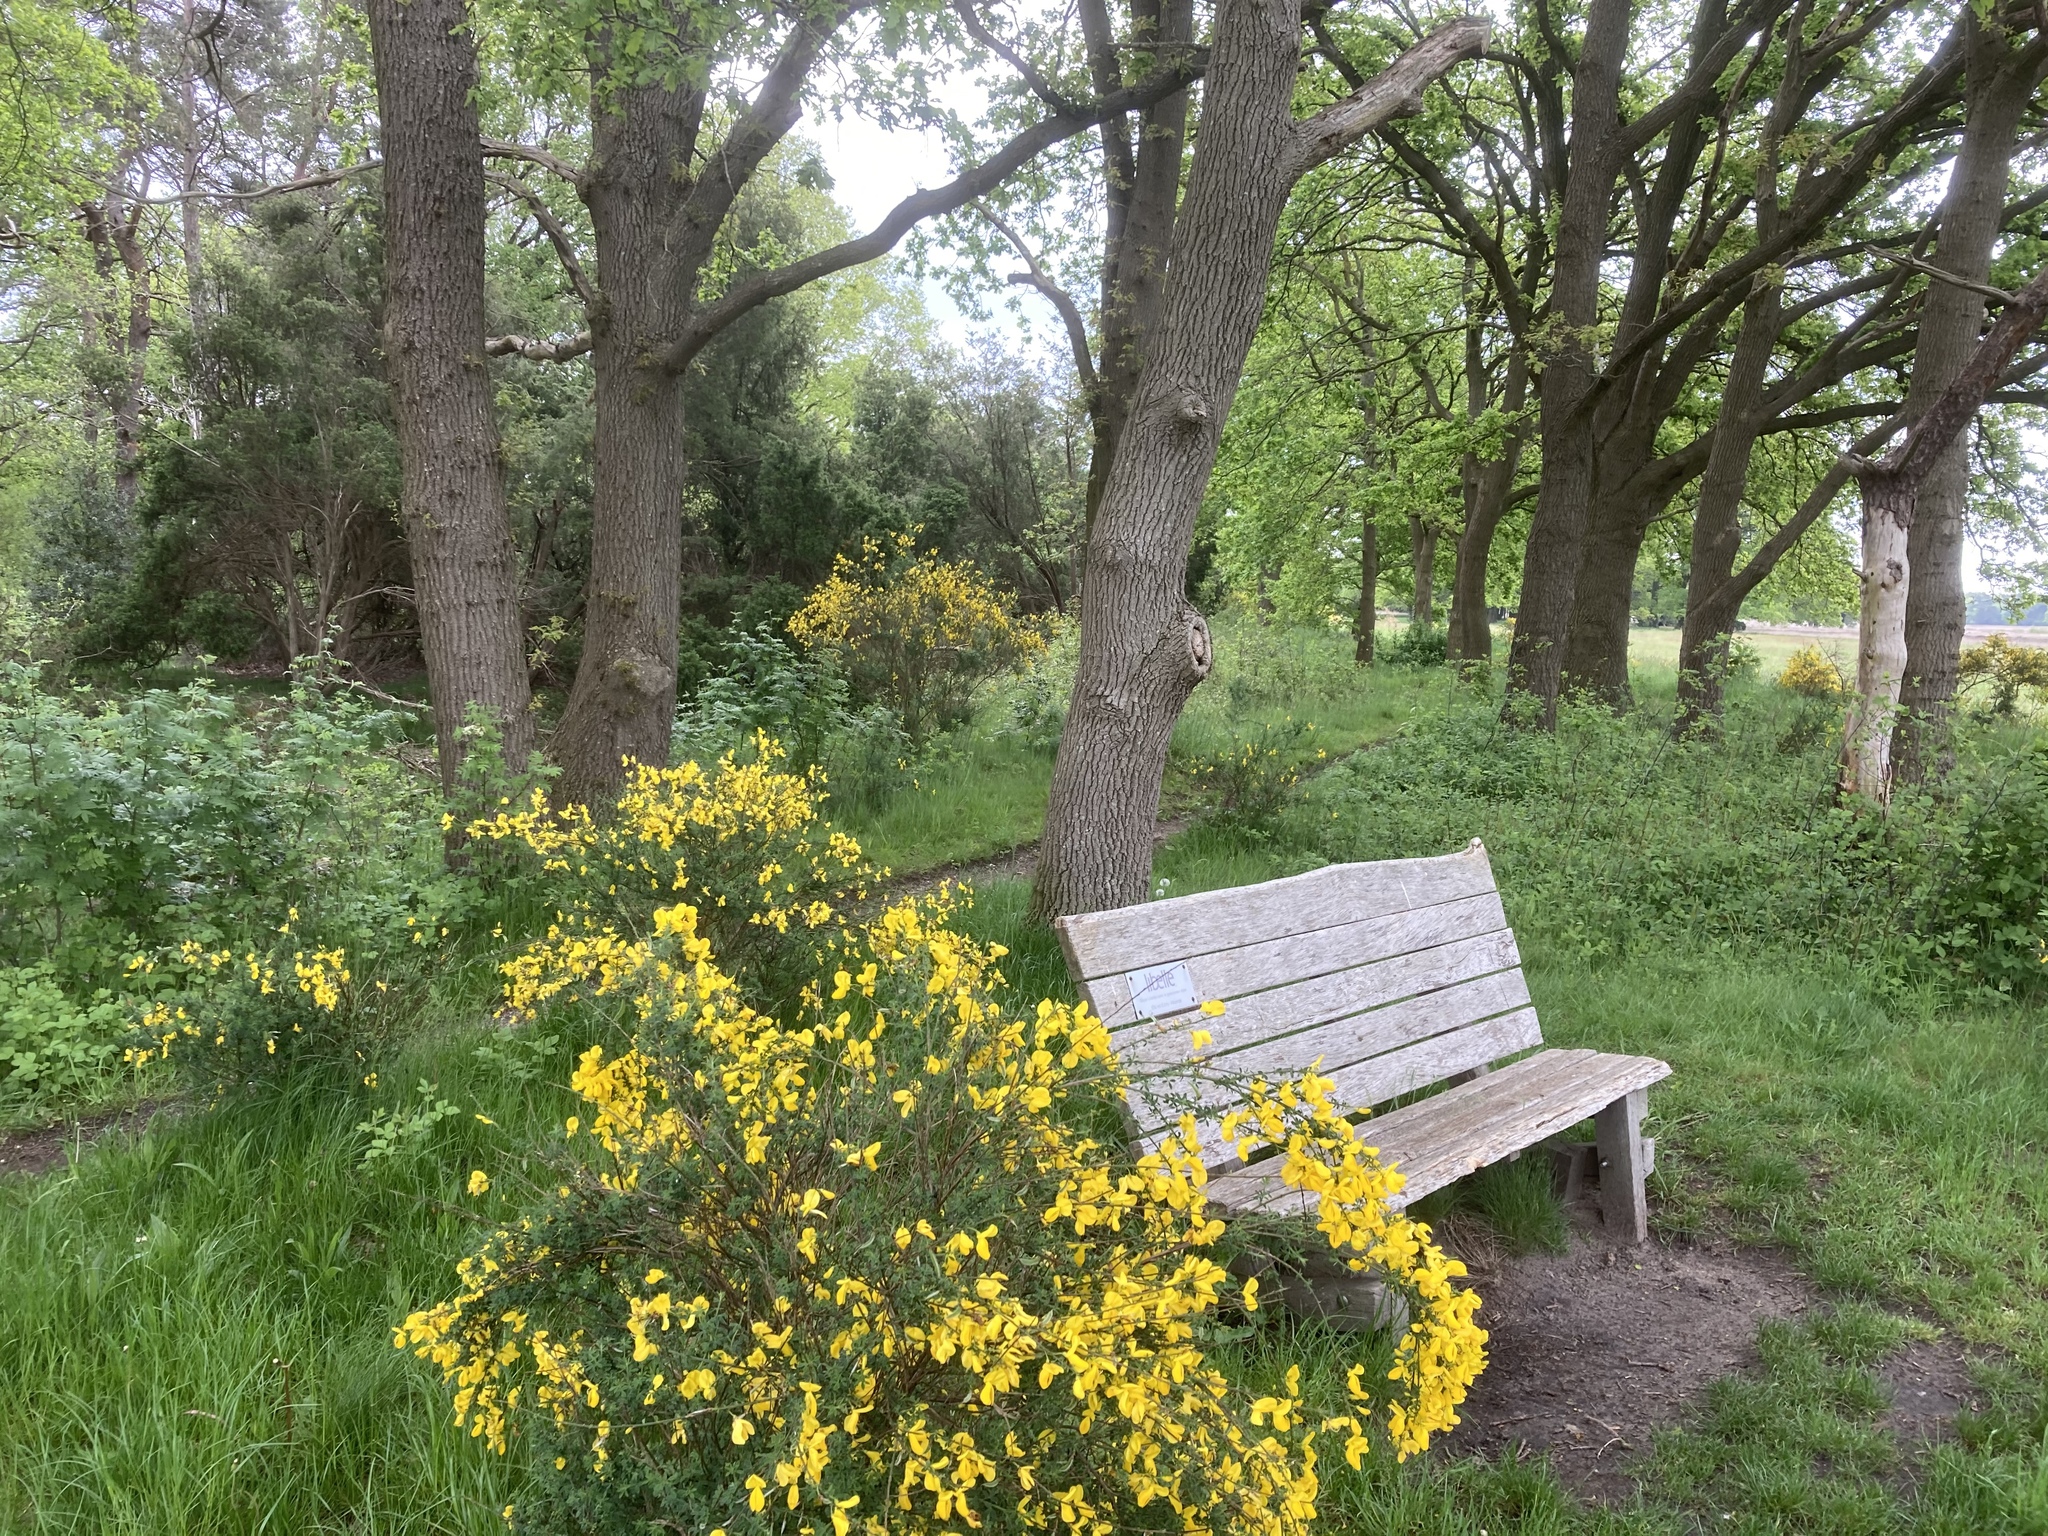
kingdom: Plantae
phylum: Tracheophyta
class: Magnoliopsida
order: Fabales
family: Fabaceae
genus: Cytisus
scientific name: Cytisus scoparius
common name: Scotch broom
